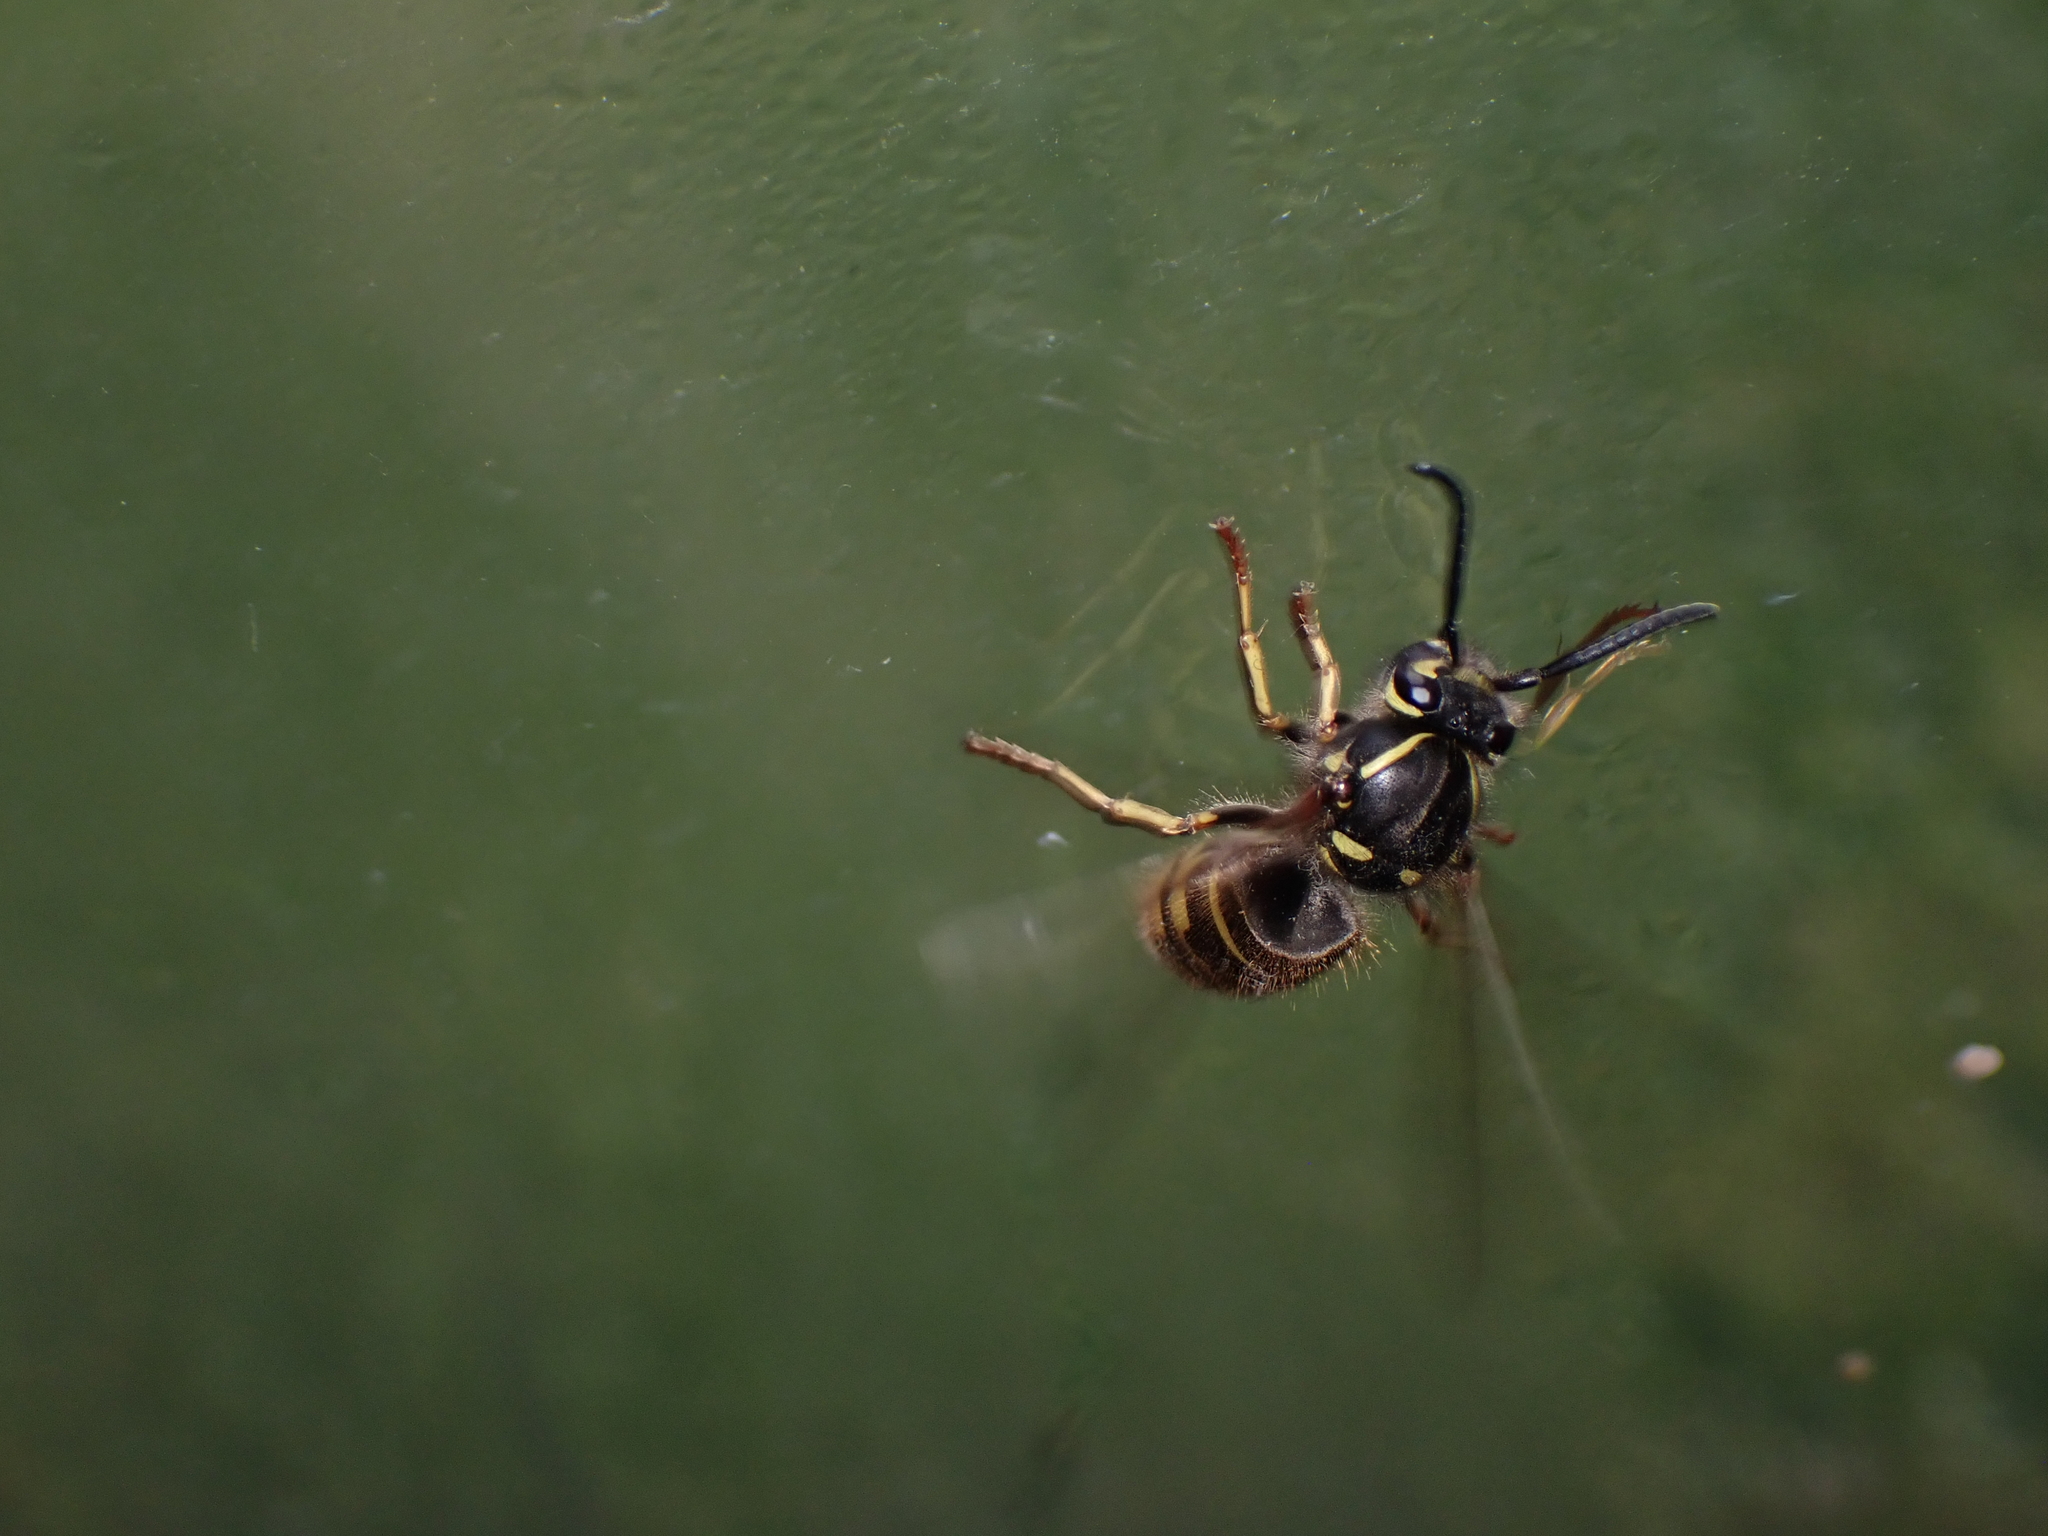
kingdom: Animalia
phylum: Arthropoda
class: Insecta
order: Hymenoptera
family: Vespidae
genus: Vespula
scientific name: Vespula alascensis
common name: Alaska yellowjacket
